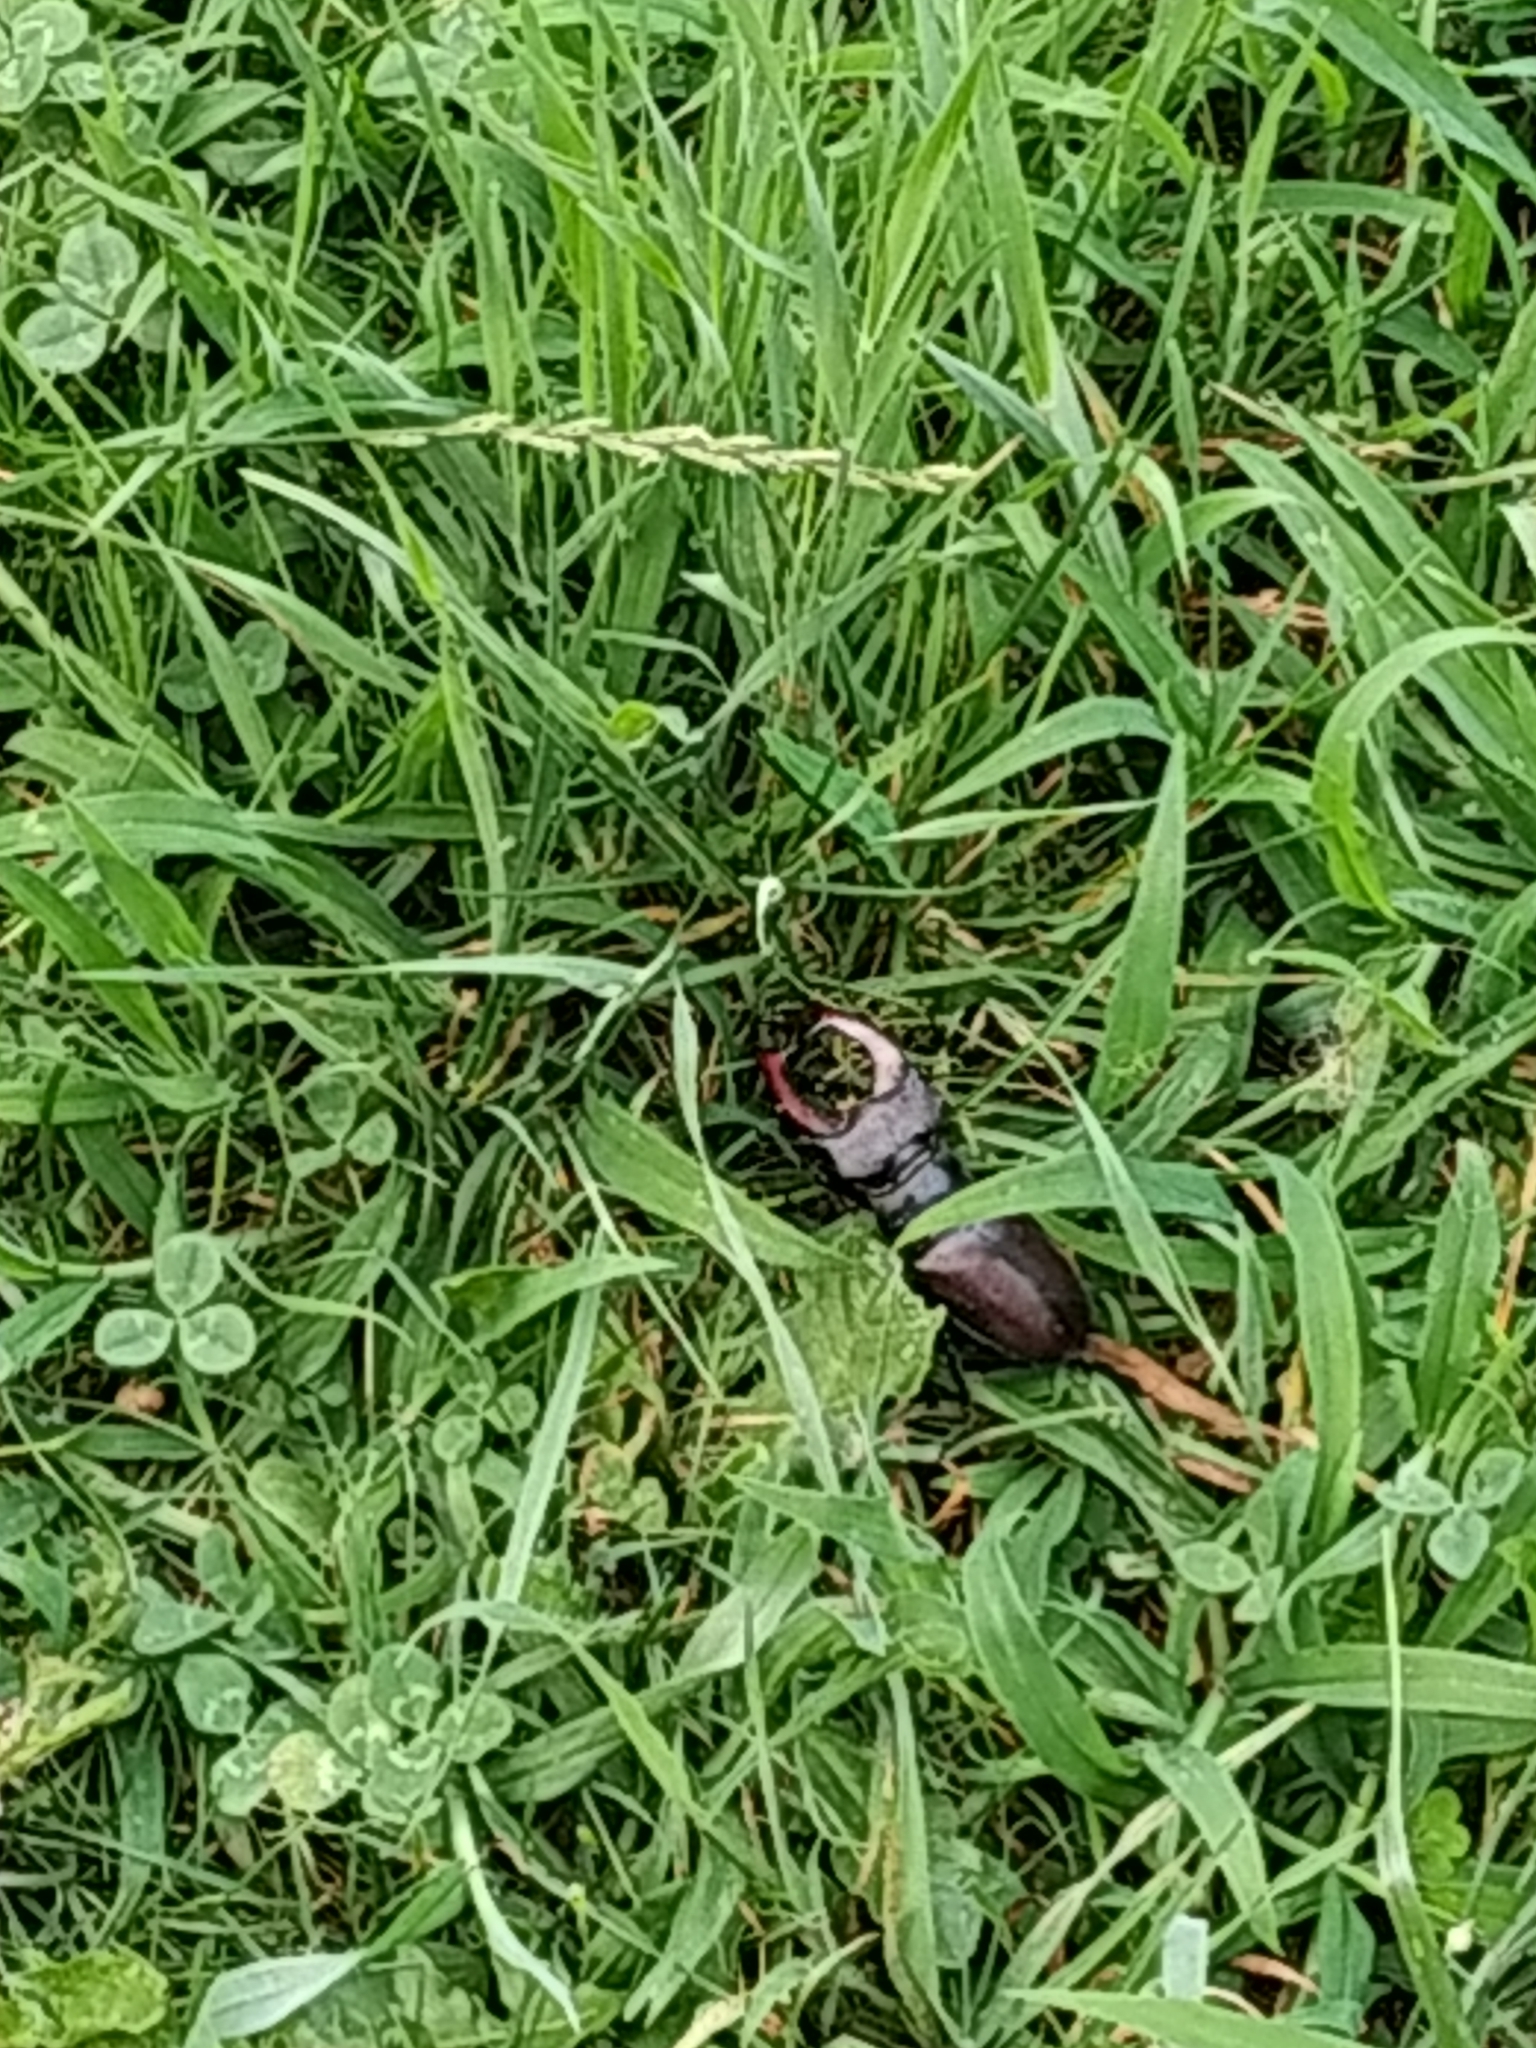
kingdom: Animalia
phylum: Arthropoda
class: Insecta
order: Coleoptera
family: Lucanidae
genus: Lucanus
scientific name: Lucanus cervus
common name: Stag beetle
